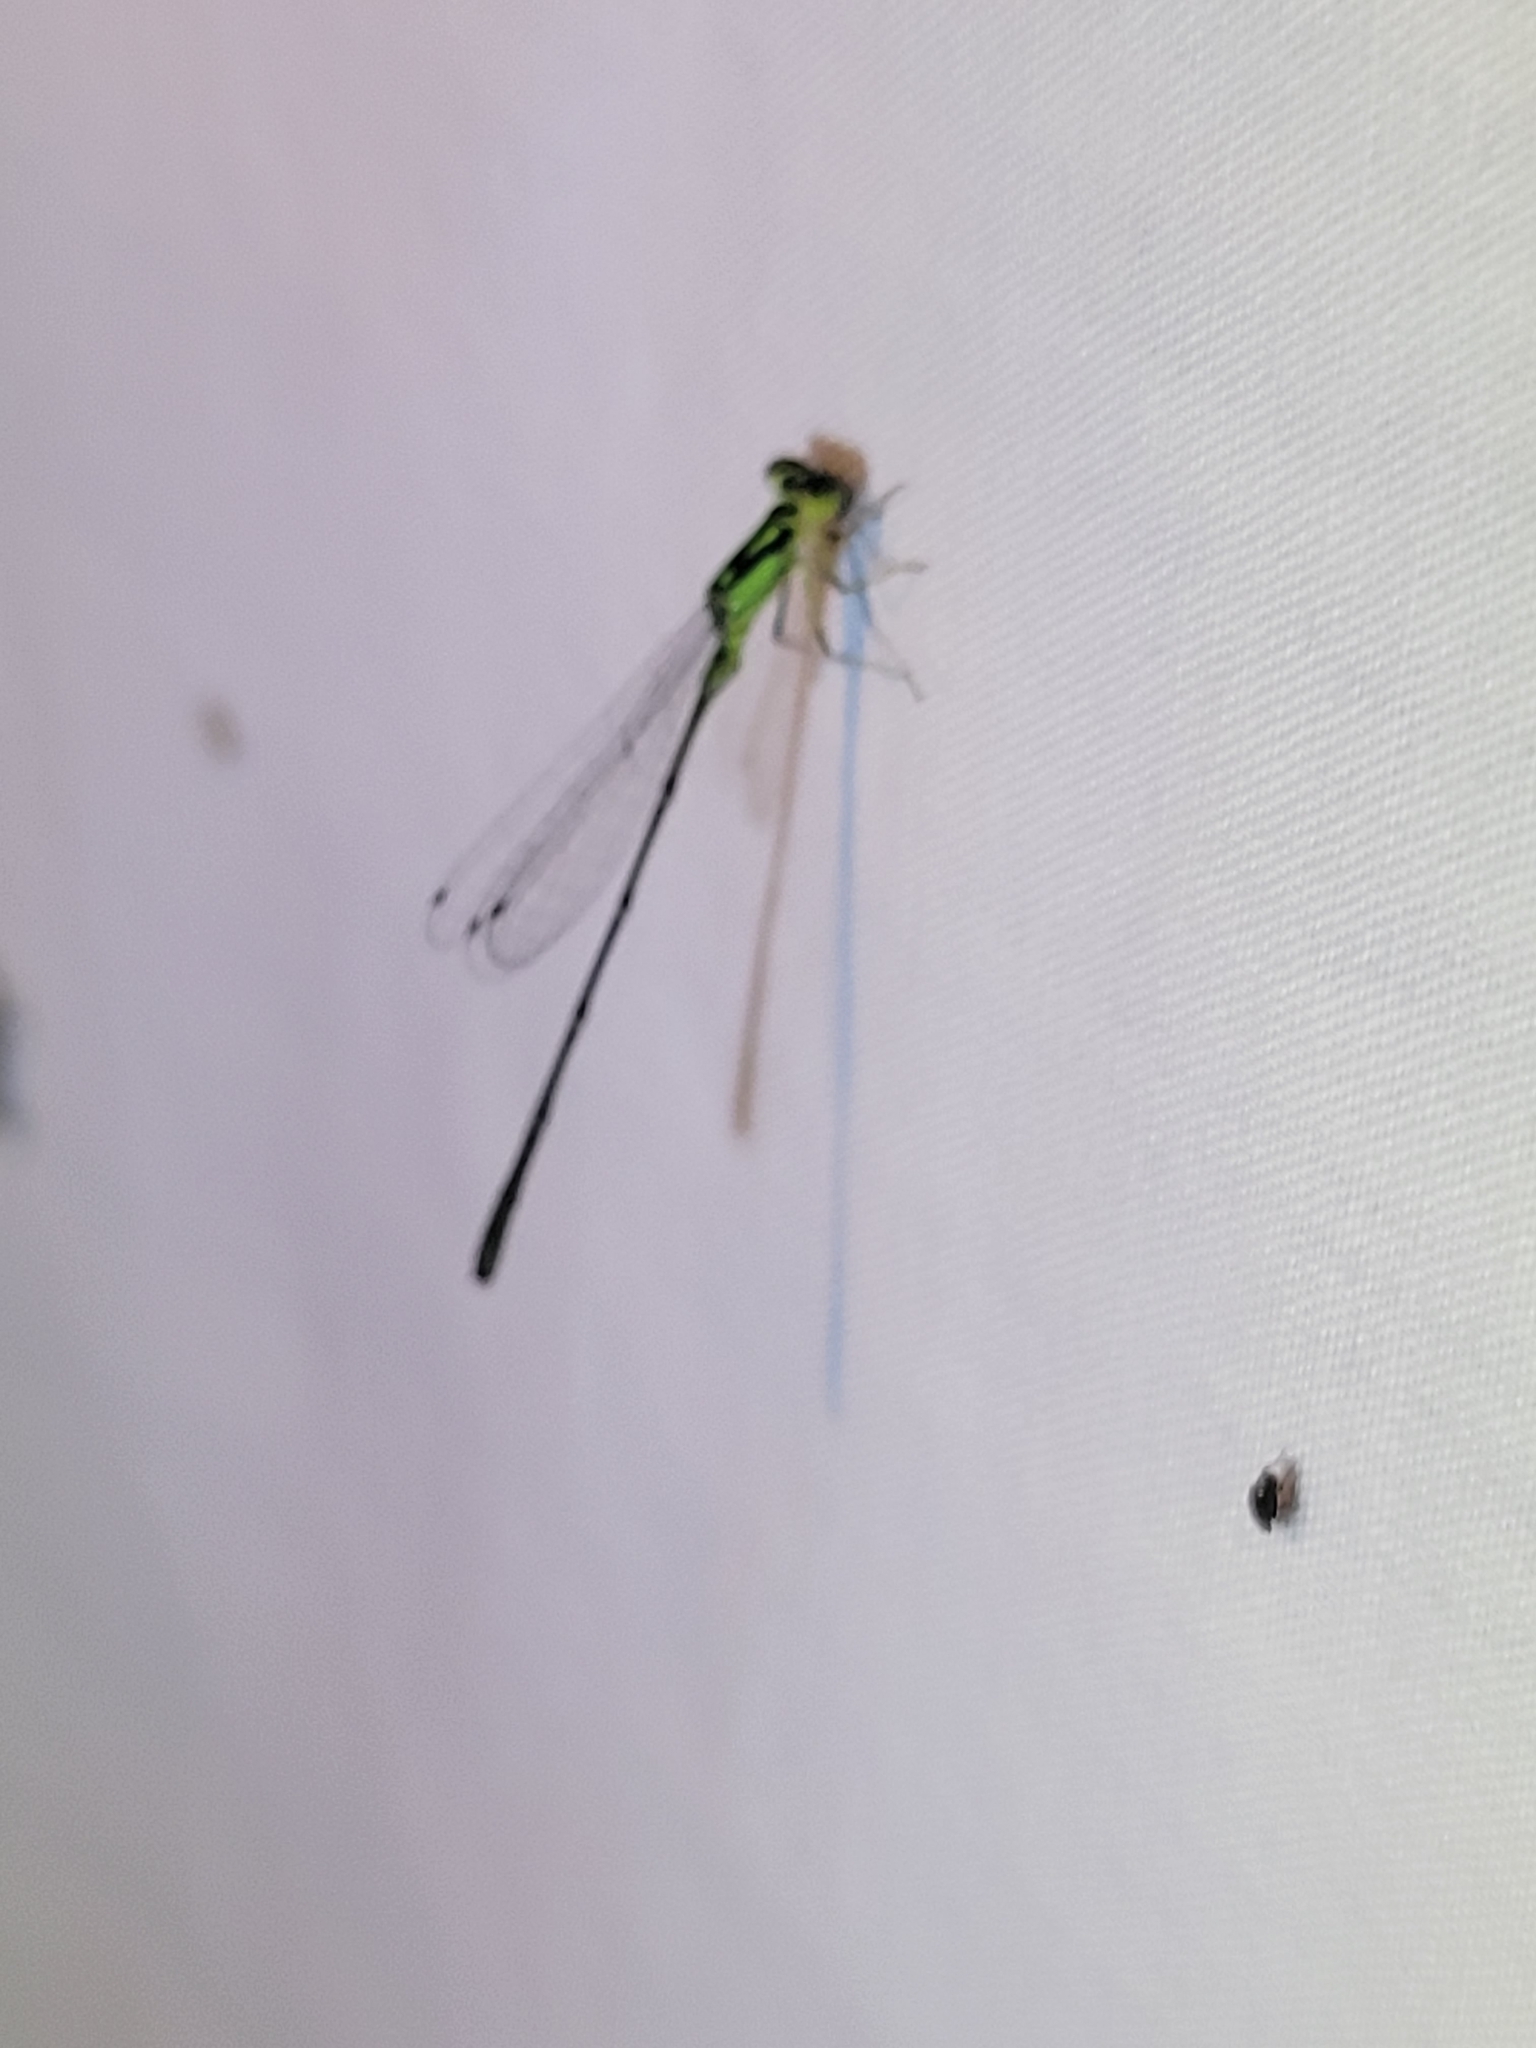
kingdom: Animalia
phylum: Arthropoda
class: Insecta
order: Odonata
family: Coenagrionidae
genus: Ischnura
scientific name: Ischnura posita
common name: Fragile forktail
